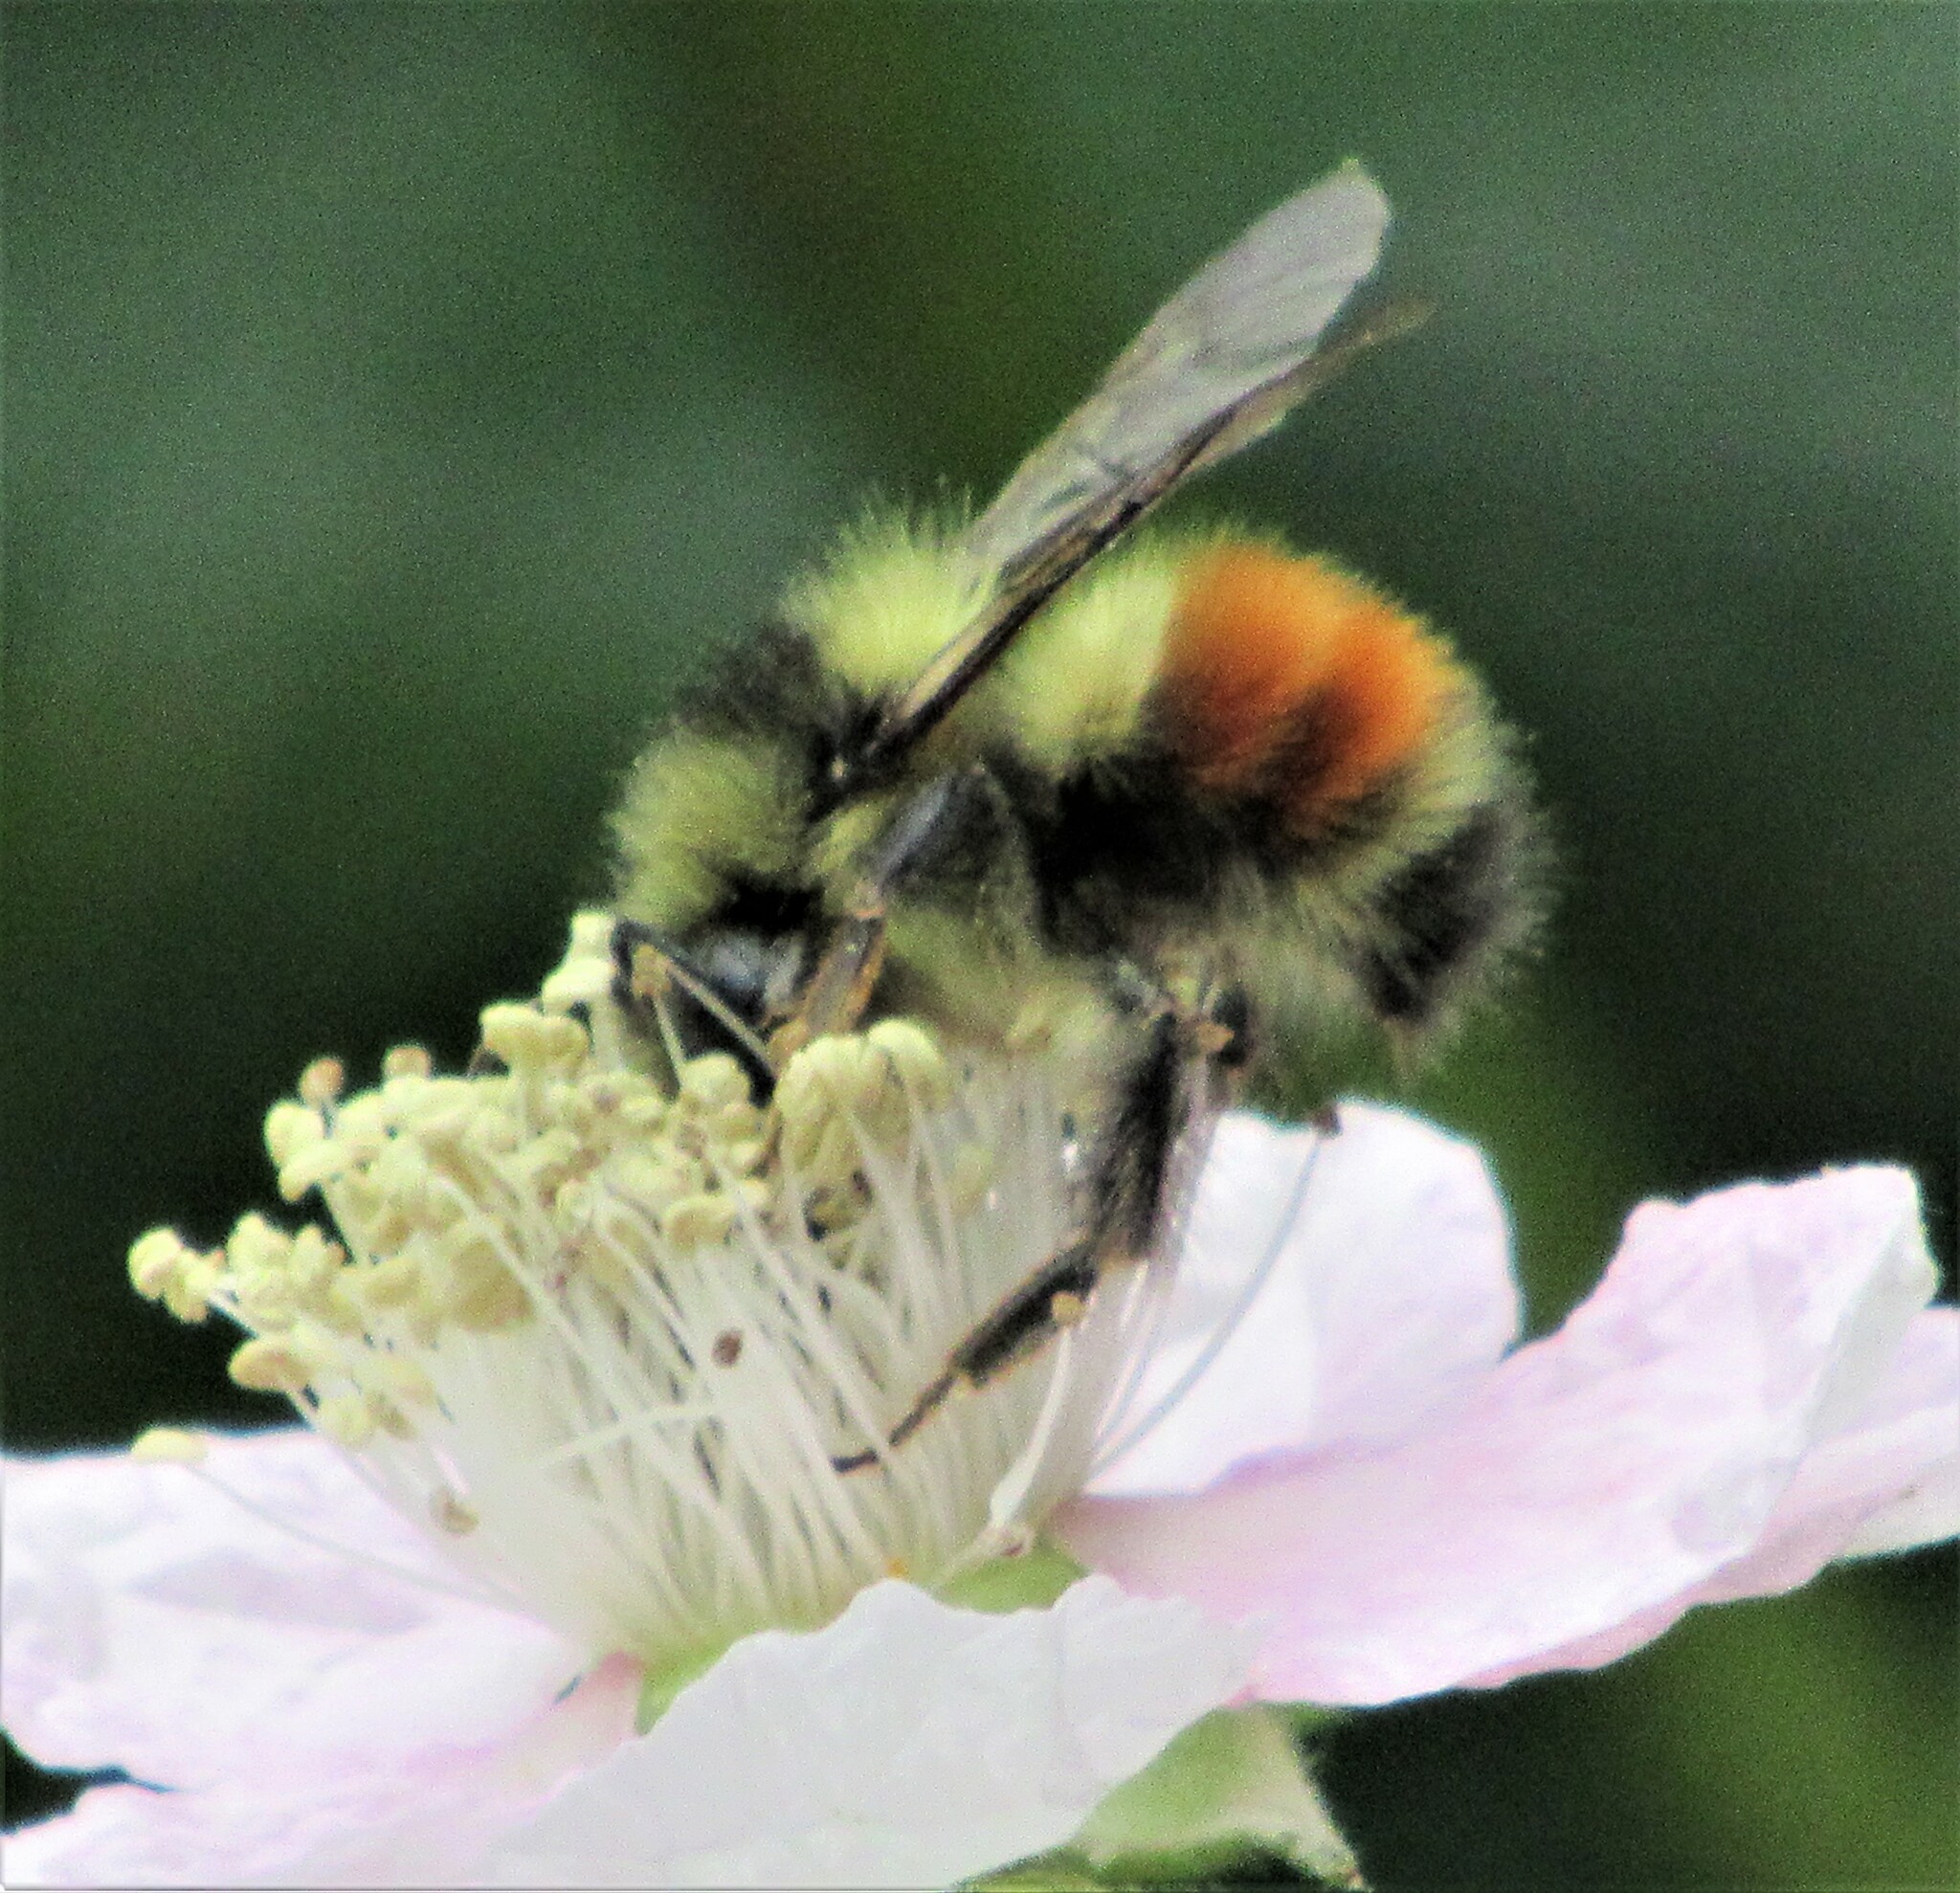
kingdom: Animalia
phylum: Arthropoda
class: Insecta
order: Hymenoptera
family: Apidae
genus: Bombus
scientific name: Bombus melanopygus
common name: Black tail bumble bee
